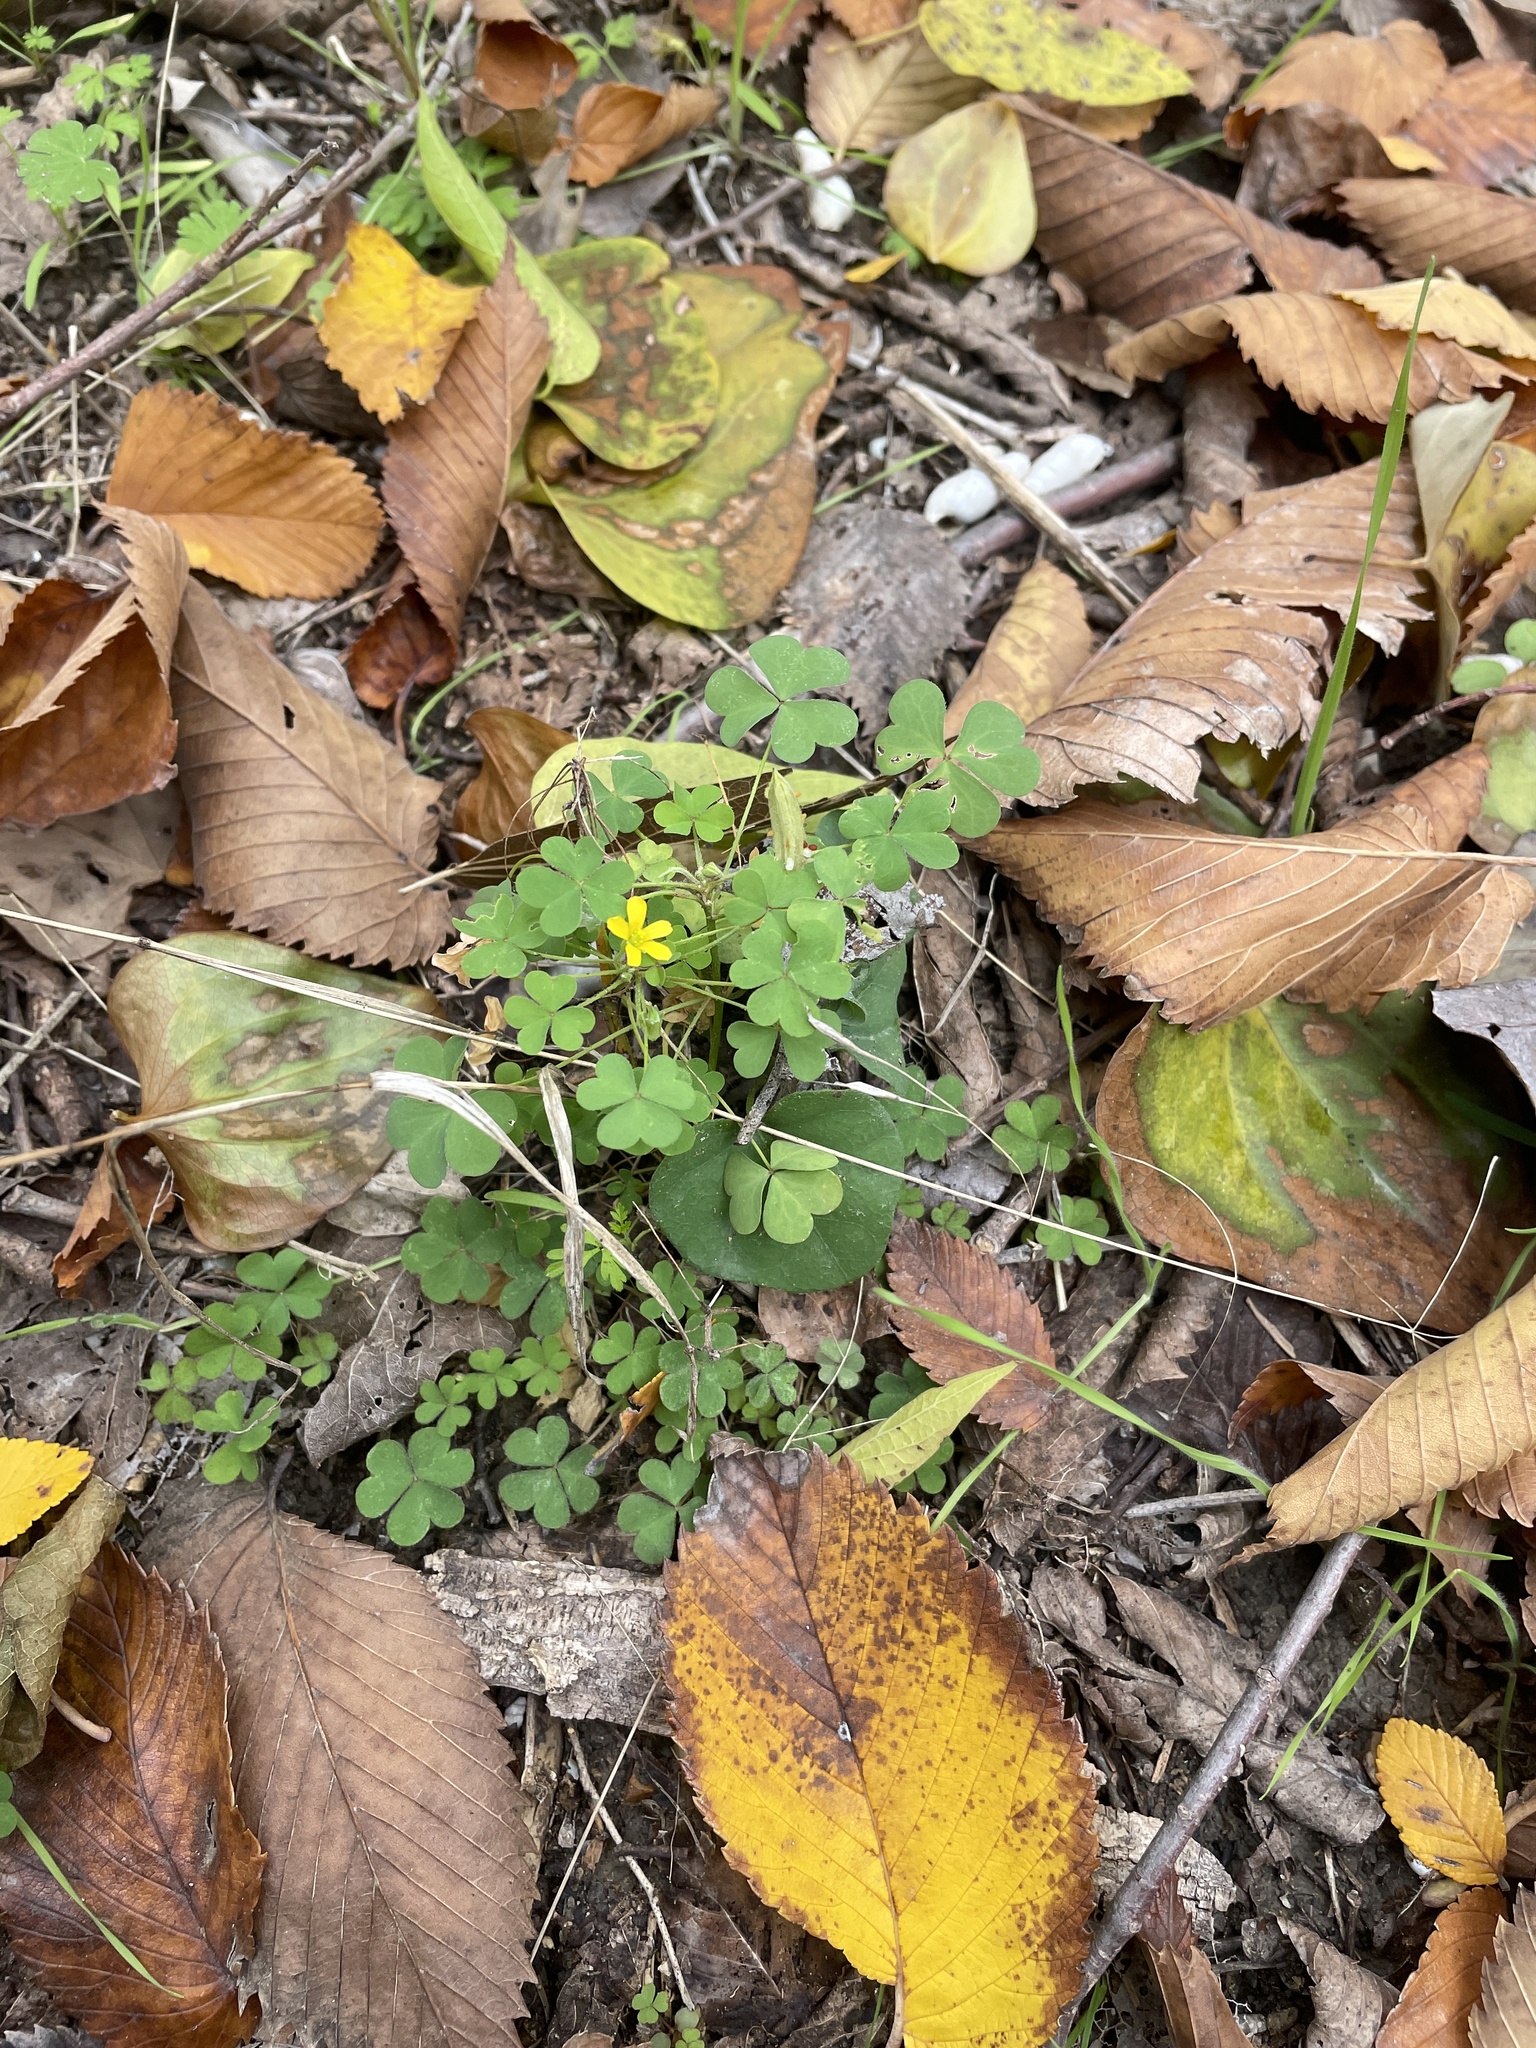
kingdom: Plantae
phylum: Tracheophyta
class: Magnoliopsida
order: Oxalidales
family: Oxalidaceae
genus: Oxalis
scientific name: Oxalis dillenii
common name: Sussex yellow-sorrel
